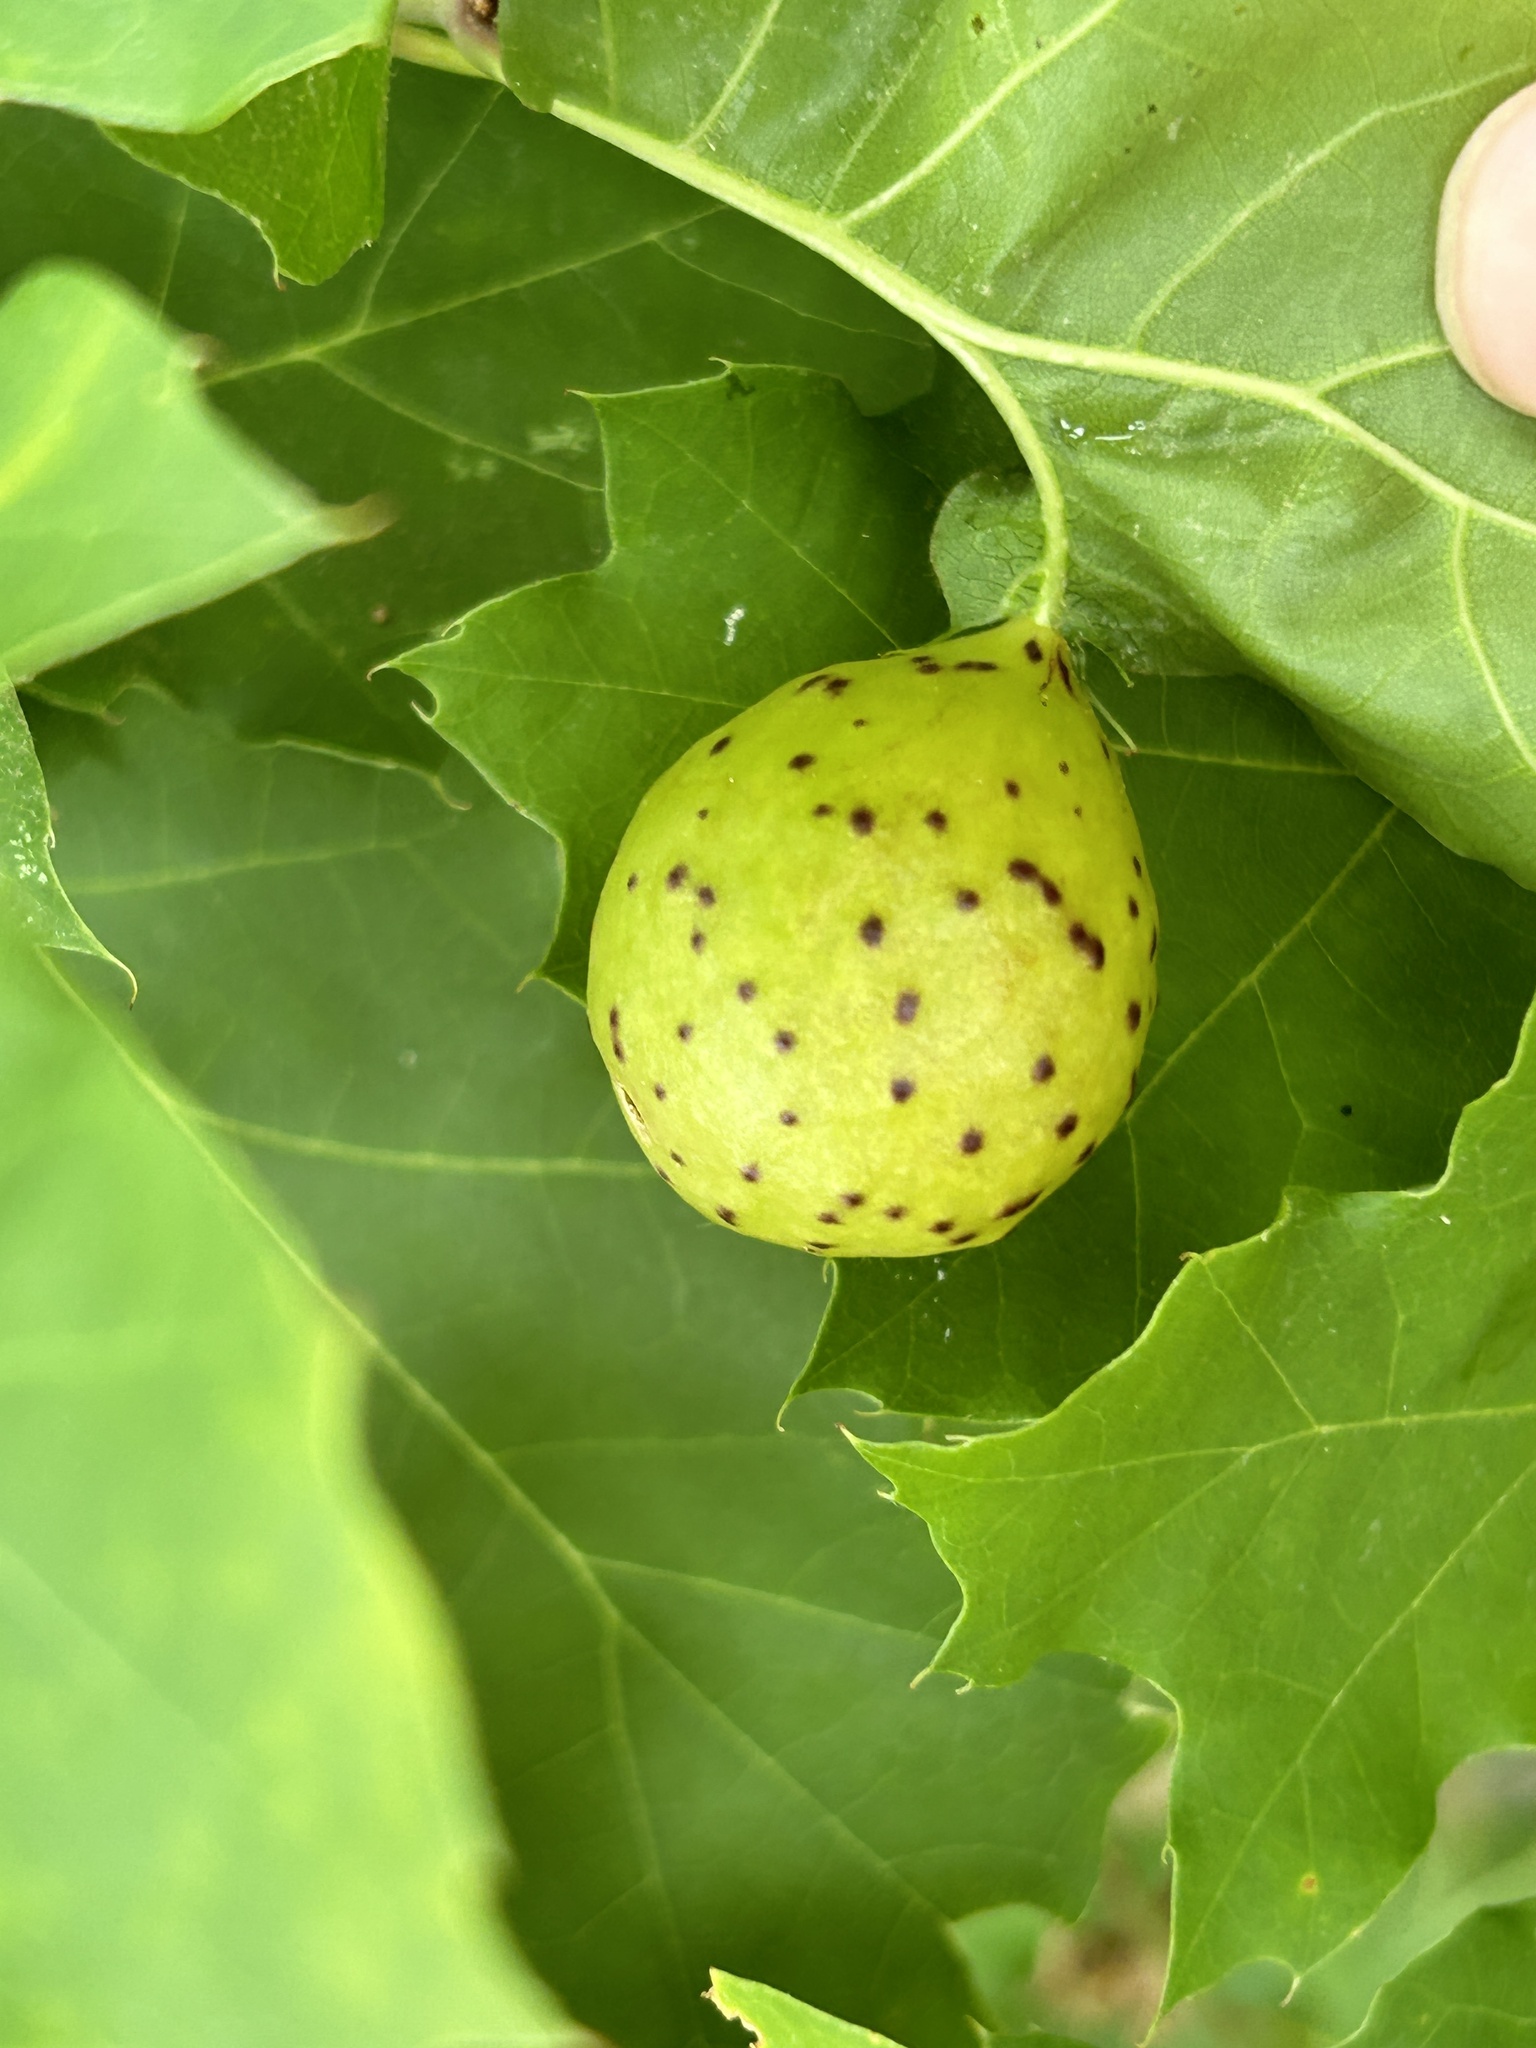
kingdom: Animalia
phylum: Arthropoda
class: Insecta
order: Hymenoptera
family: Cynipidae
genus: Amphibolips
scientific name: Amphibolips
